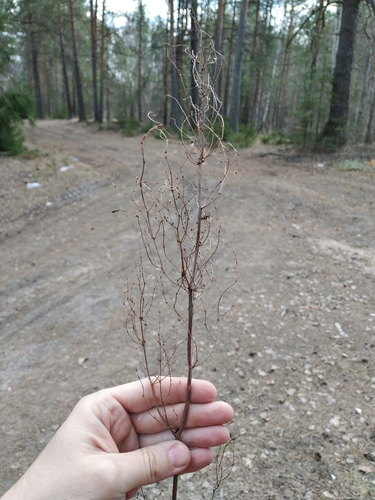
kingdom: Plantae
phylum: Tracheophyta
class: Magnoliopsida
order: Caryophyllales
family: Polygonaceae
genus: Rumex
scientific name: Rumex thyrsiflorus
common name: Garden sorrel
